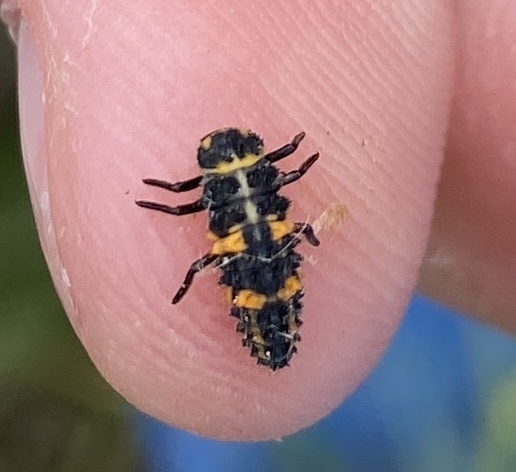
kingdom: Animalia
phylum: Arthropoda
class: Insecta
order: Coleoptera
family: Coccinellidae
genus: Coccinella
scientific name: Coccinella septempunctata
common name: Sevenspotted lady beetle
